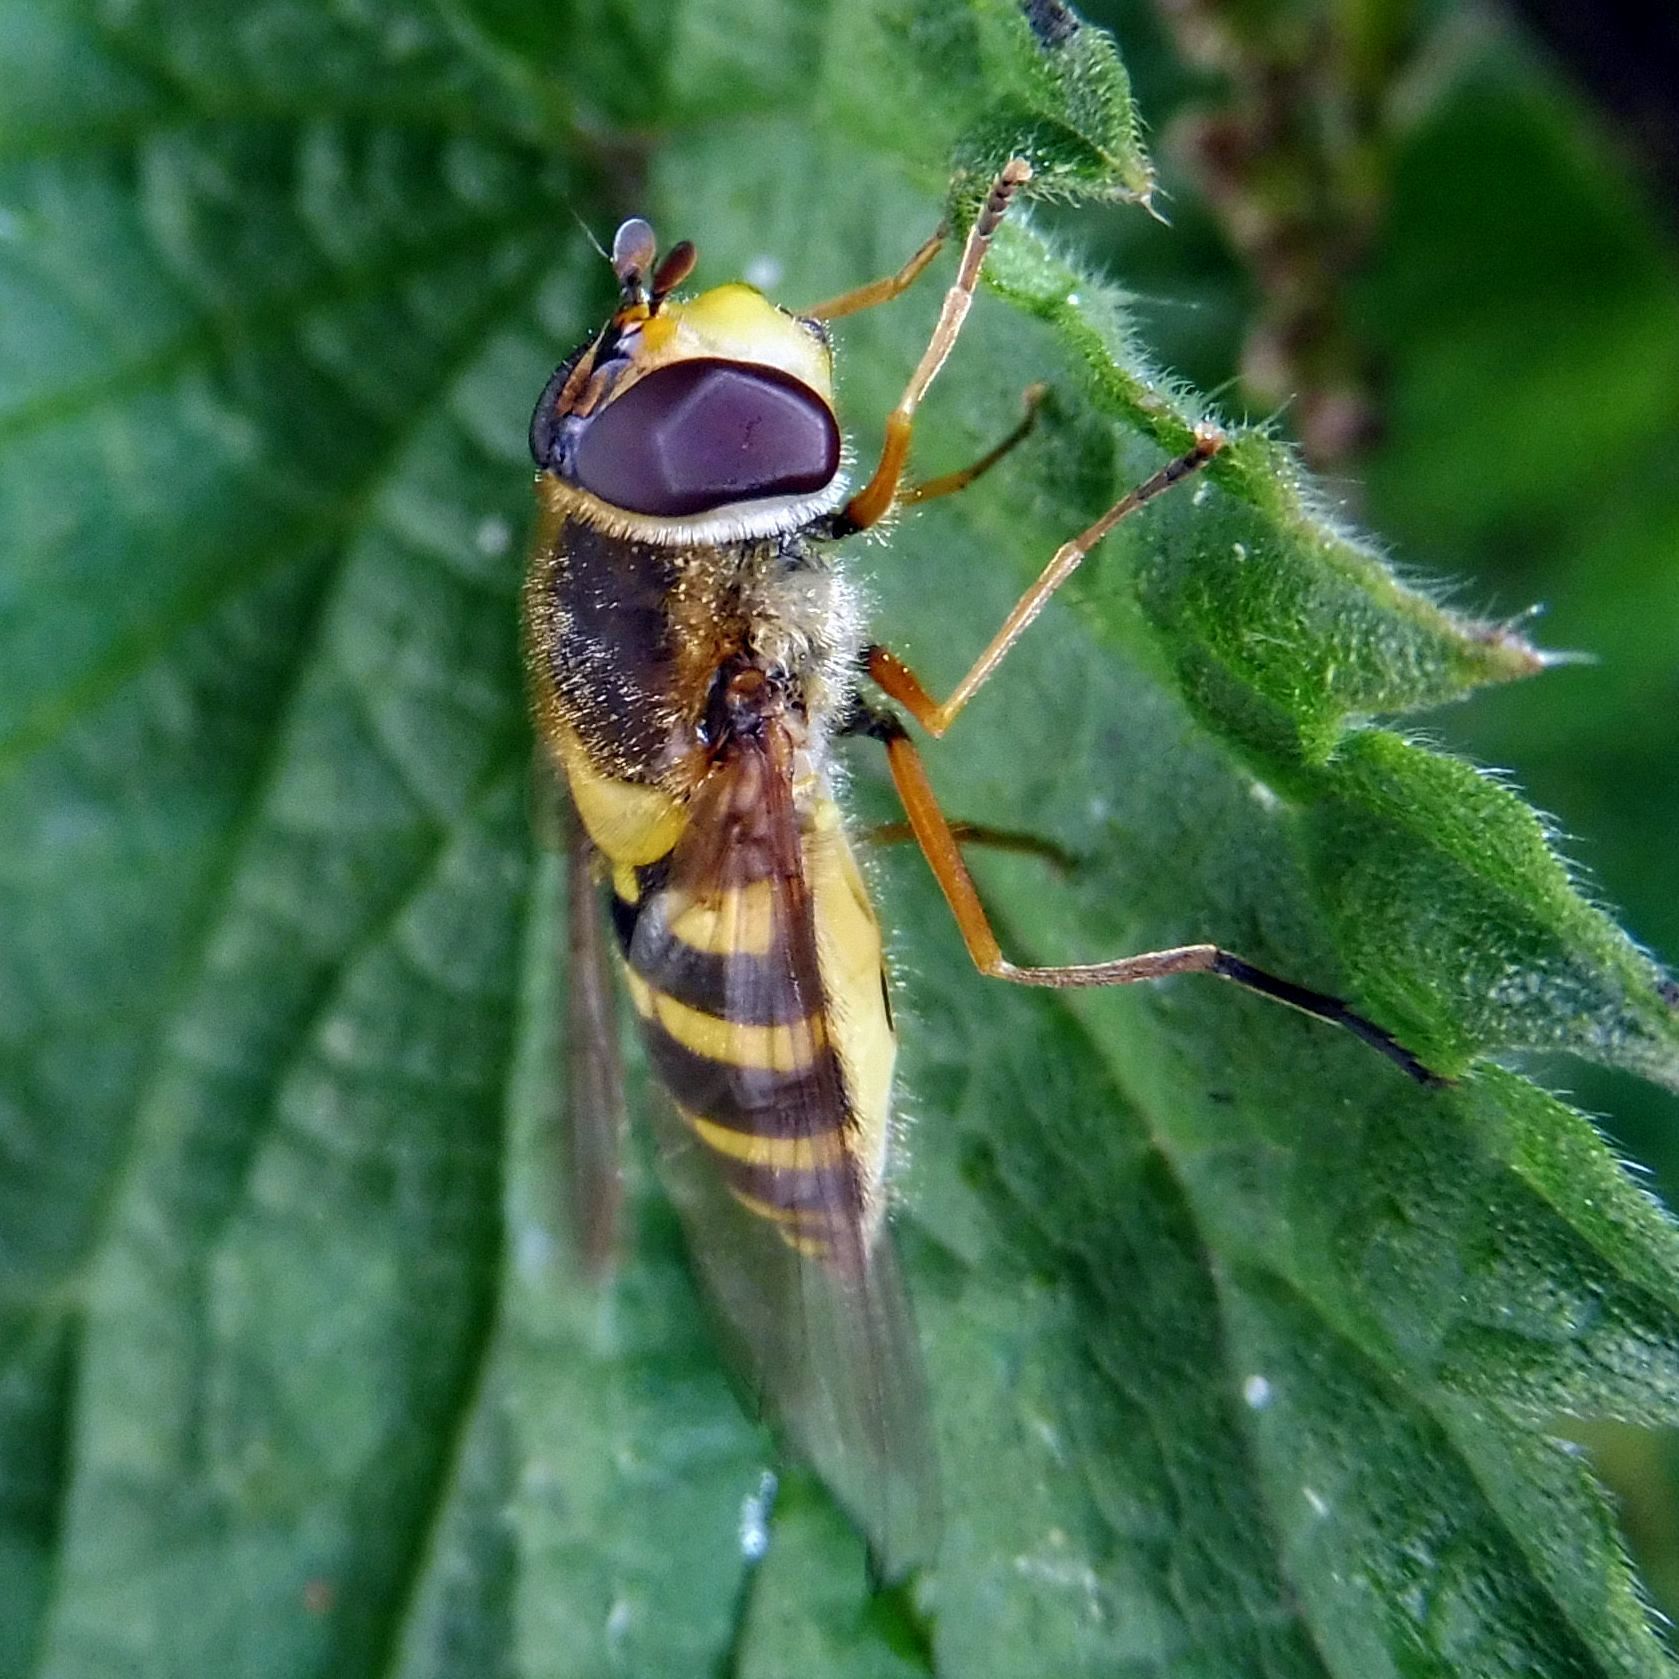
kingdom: Animalia
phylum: Arthropoda
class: Insecta
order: Diptera
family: Syrphidae
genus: Syrphus
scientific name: Syrphus ribesii
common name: Common flower fly
